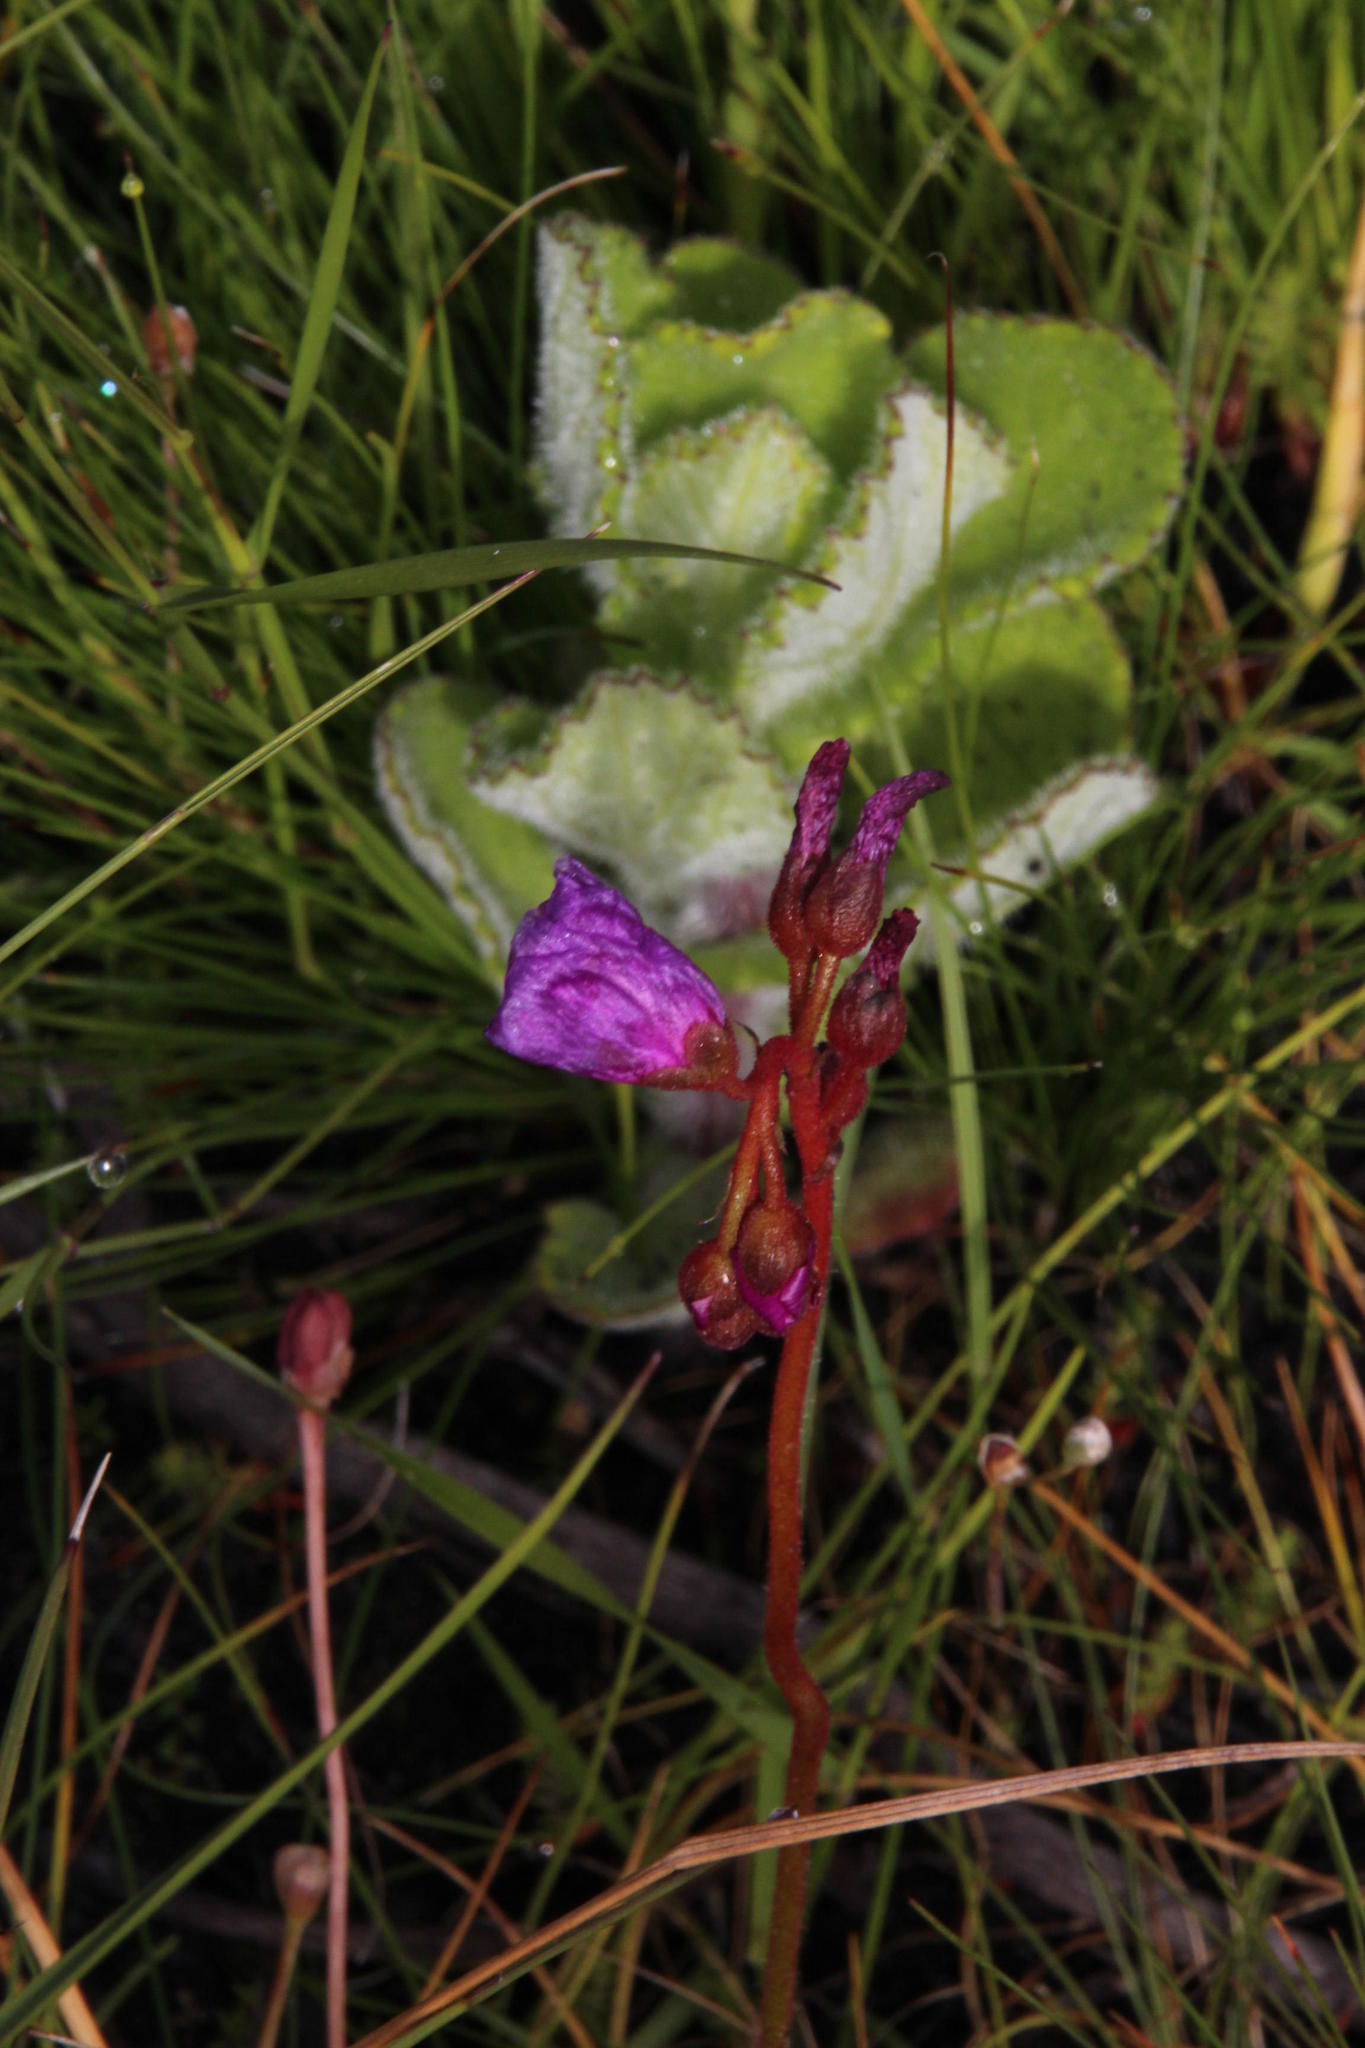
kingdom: Plantae
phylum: Tracheophyta
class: Magnoliopsida
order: Caryophyllales
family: Droseraceae
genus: Drosera
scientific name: Drosera capensis
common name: Cape sundew
